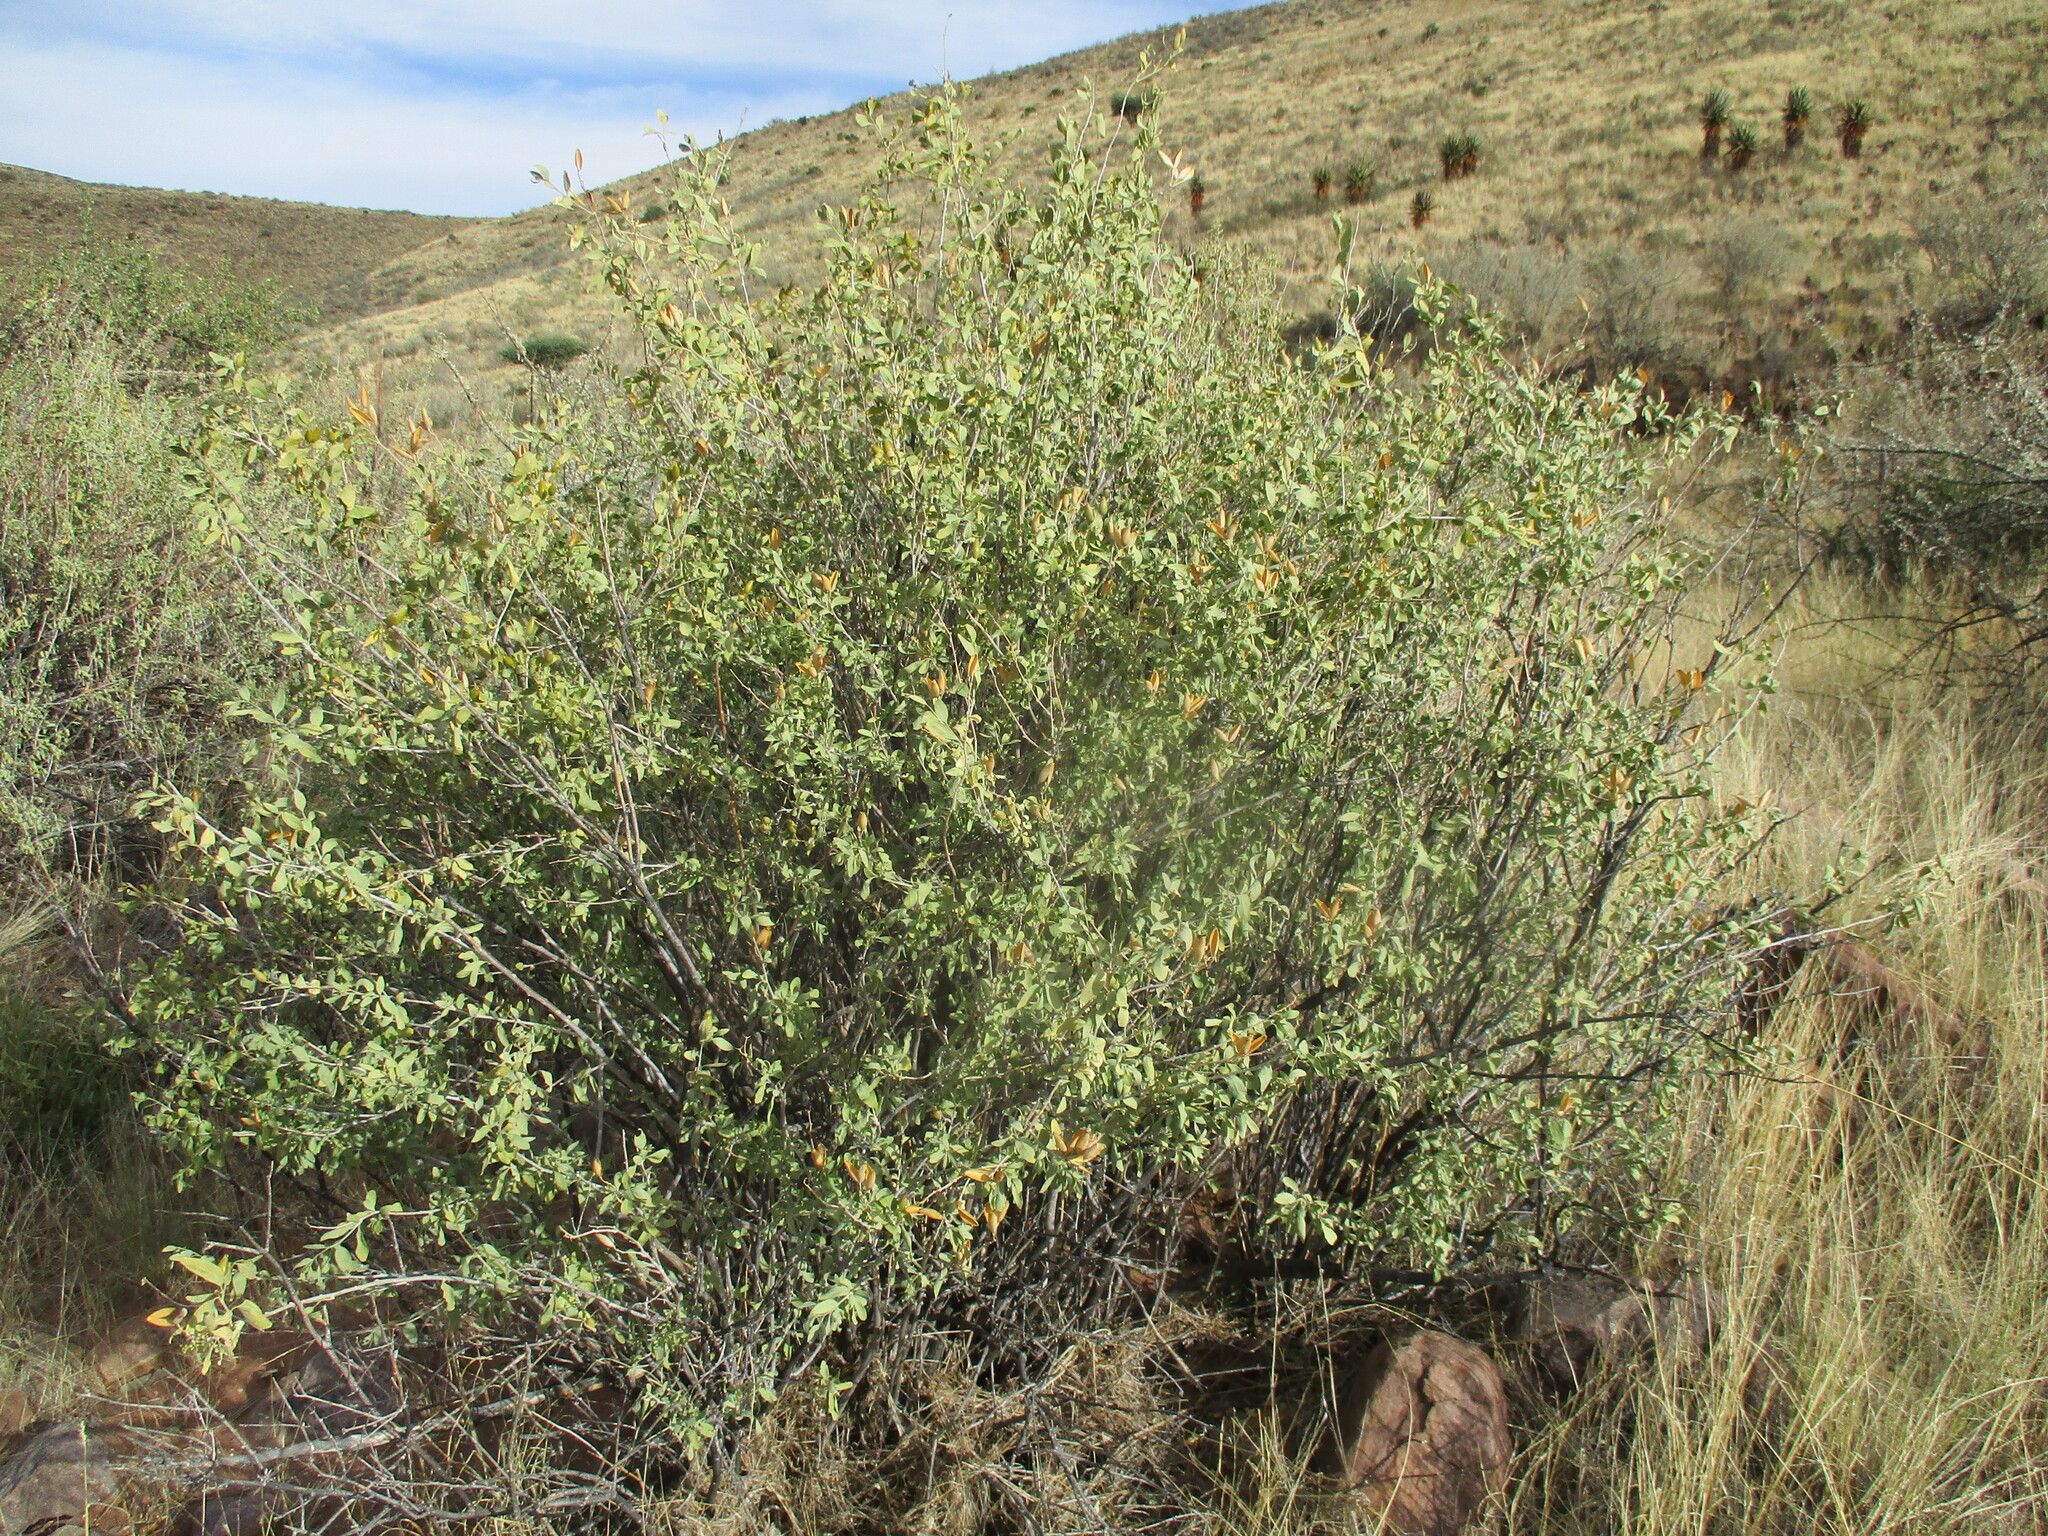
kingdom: Plantae
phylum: Tracheophyta
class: Magnoliopsida
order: Solanales
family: Montiniaceae
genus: Montinia
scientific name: Montinia caryophyllacea
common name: Wild clove-bush
